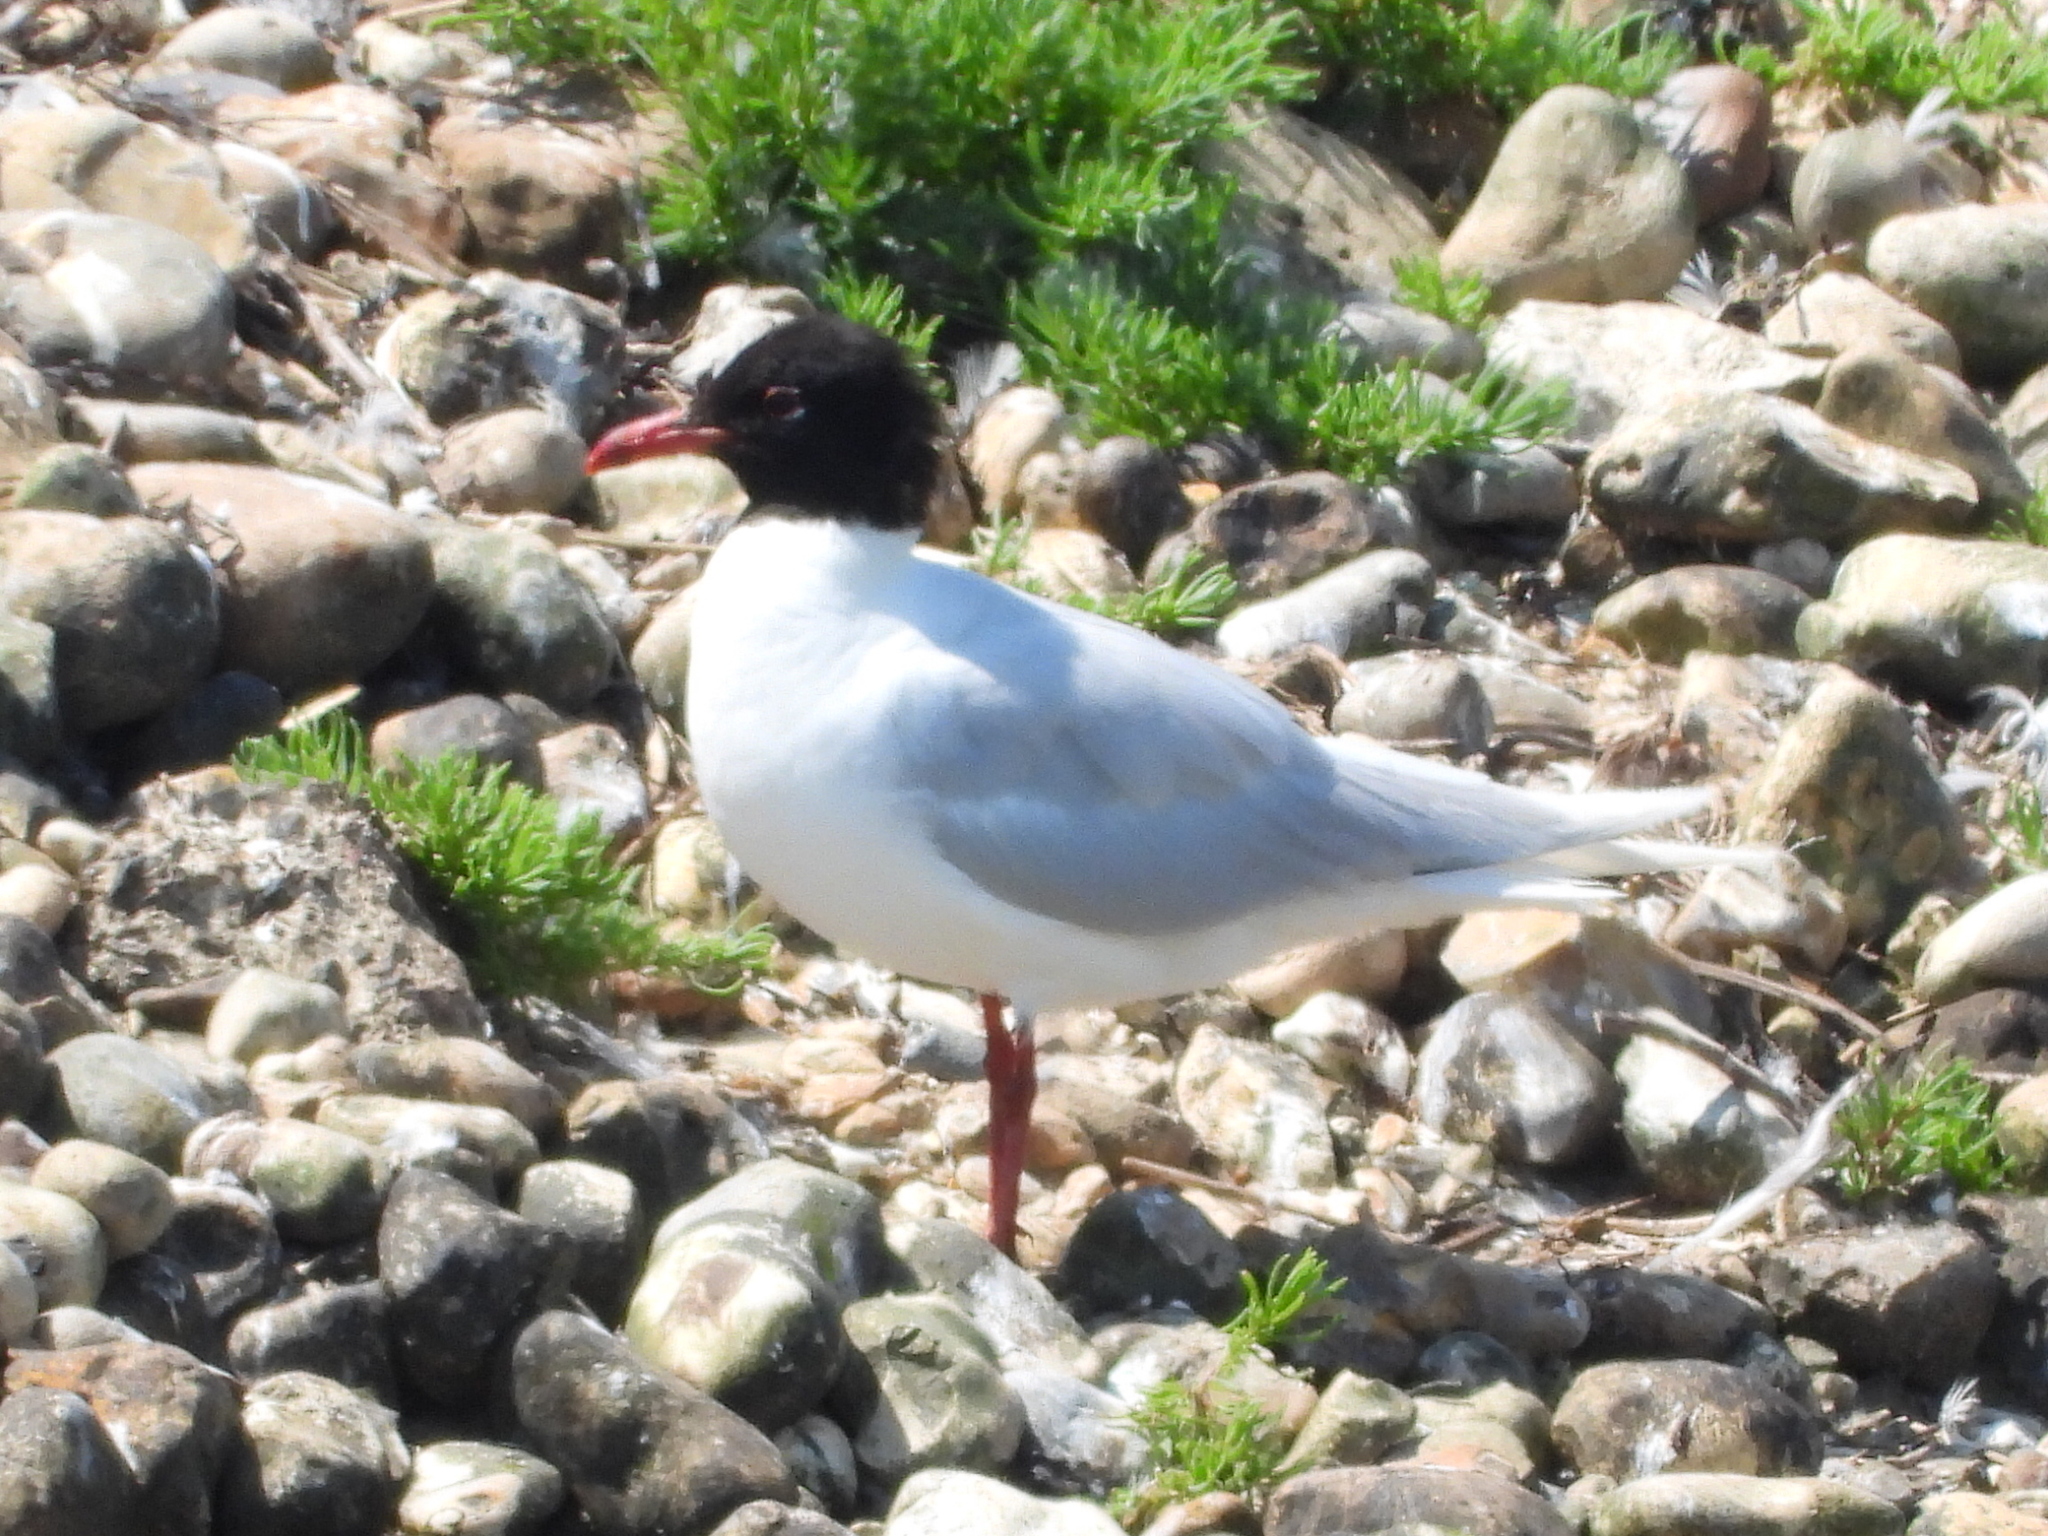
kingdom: Animalia
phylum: Chordata
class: Aves
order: Charadriiformes
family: Laridae
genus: Ichthyaetus
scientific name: Ichthyaetus melanocephalus
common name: Mediterranean gull
